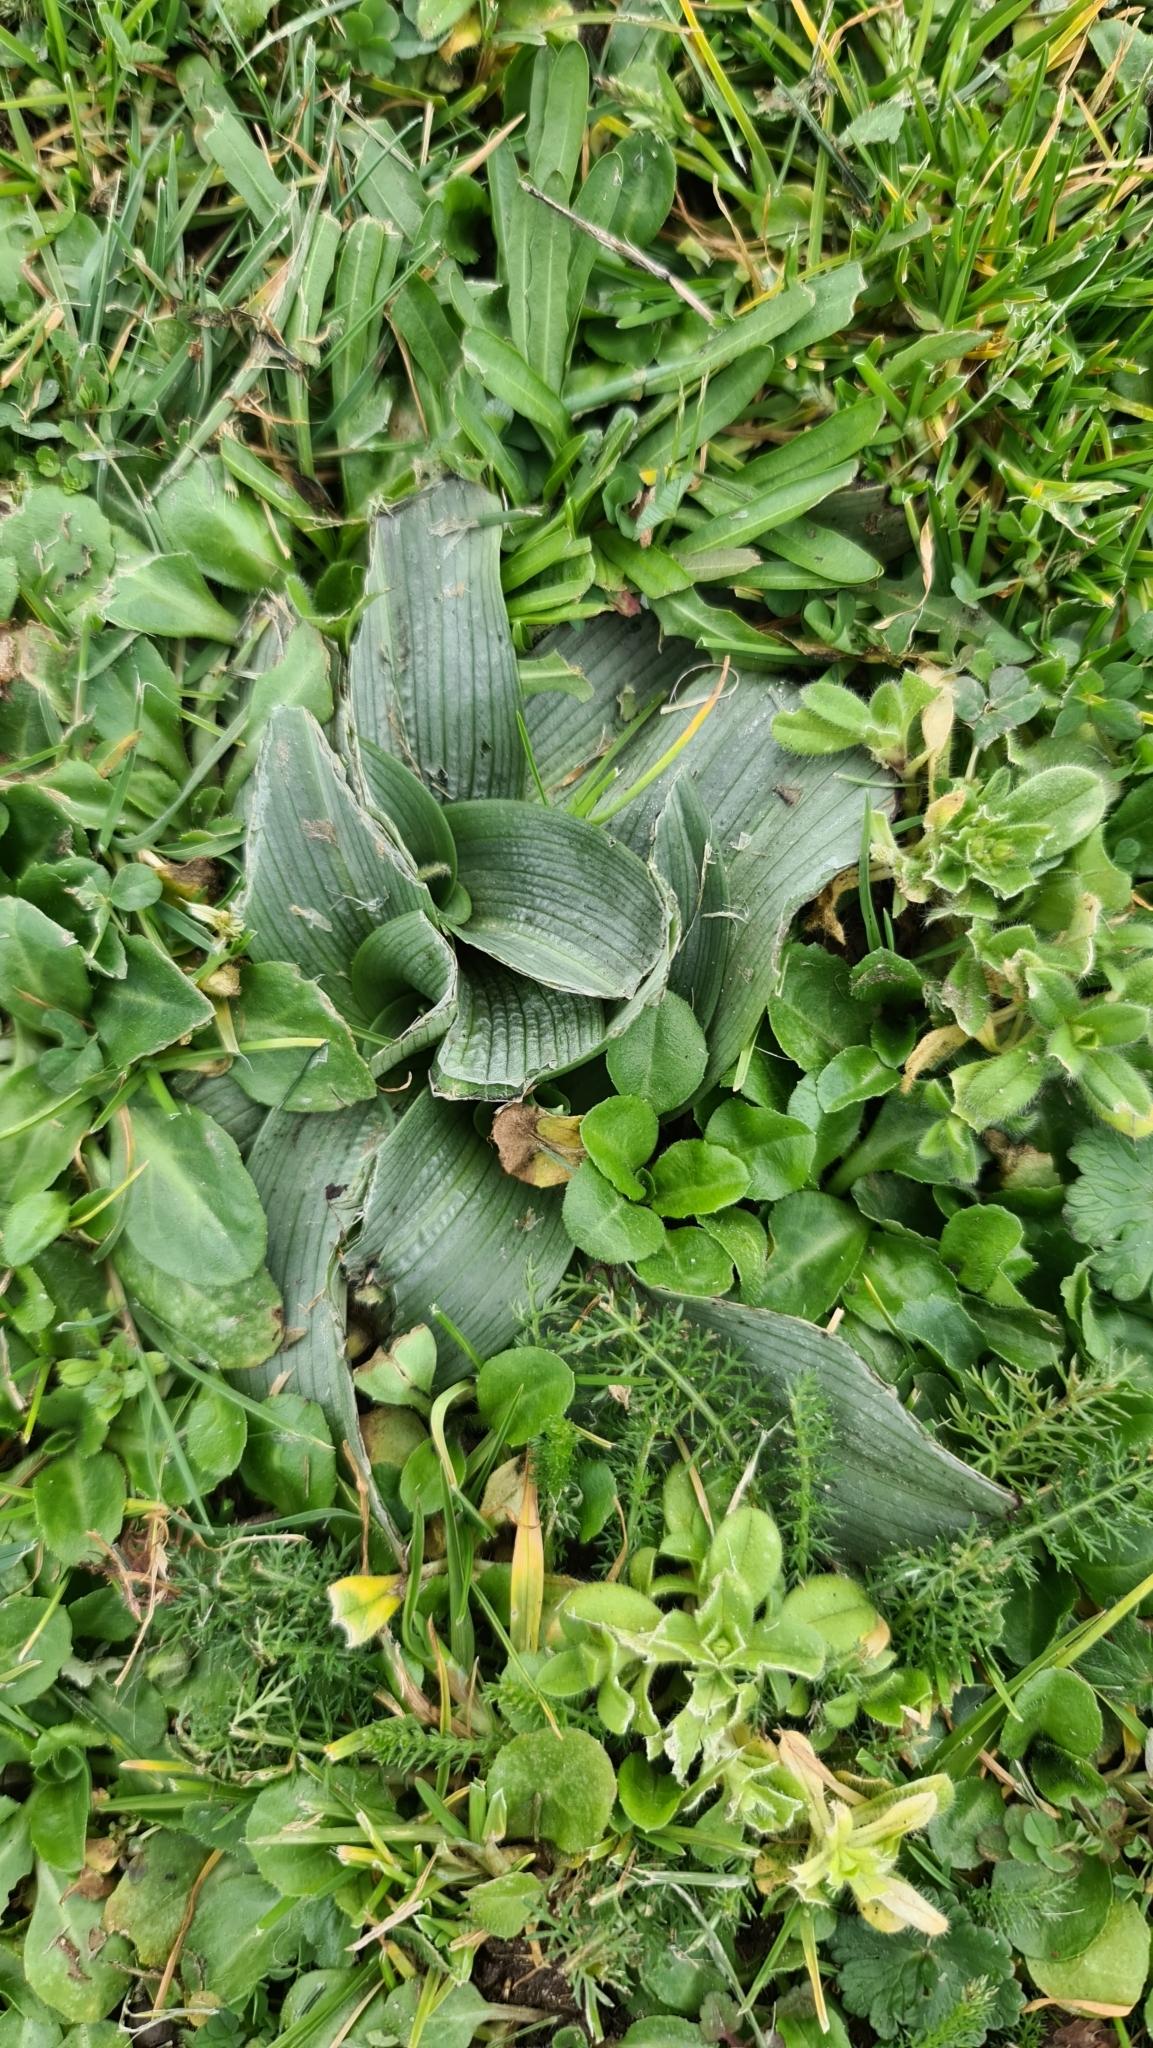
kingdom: Plantae
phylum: Tracheophyta
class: Liliopsida
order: Asparagales
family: Orchidaceae
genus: Ophrys
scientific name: Ophrys apifera
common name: Bee orchid
